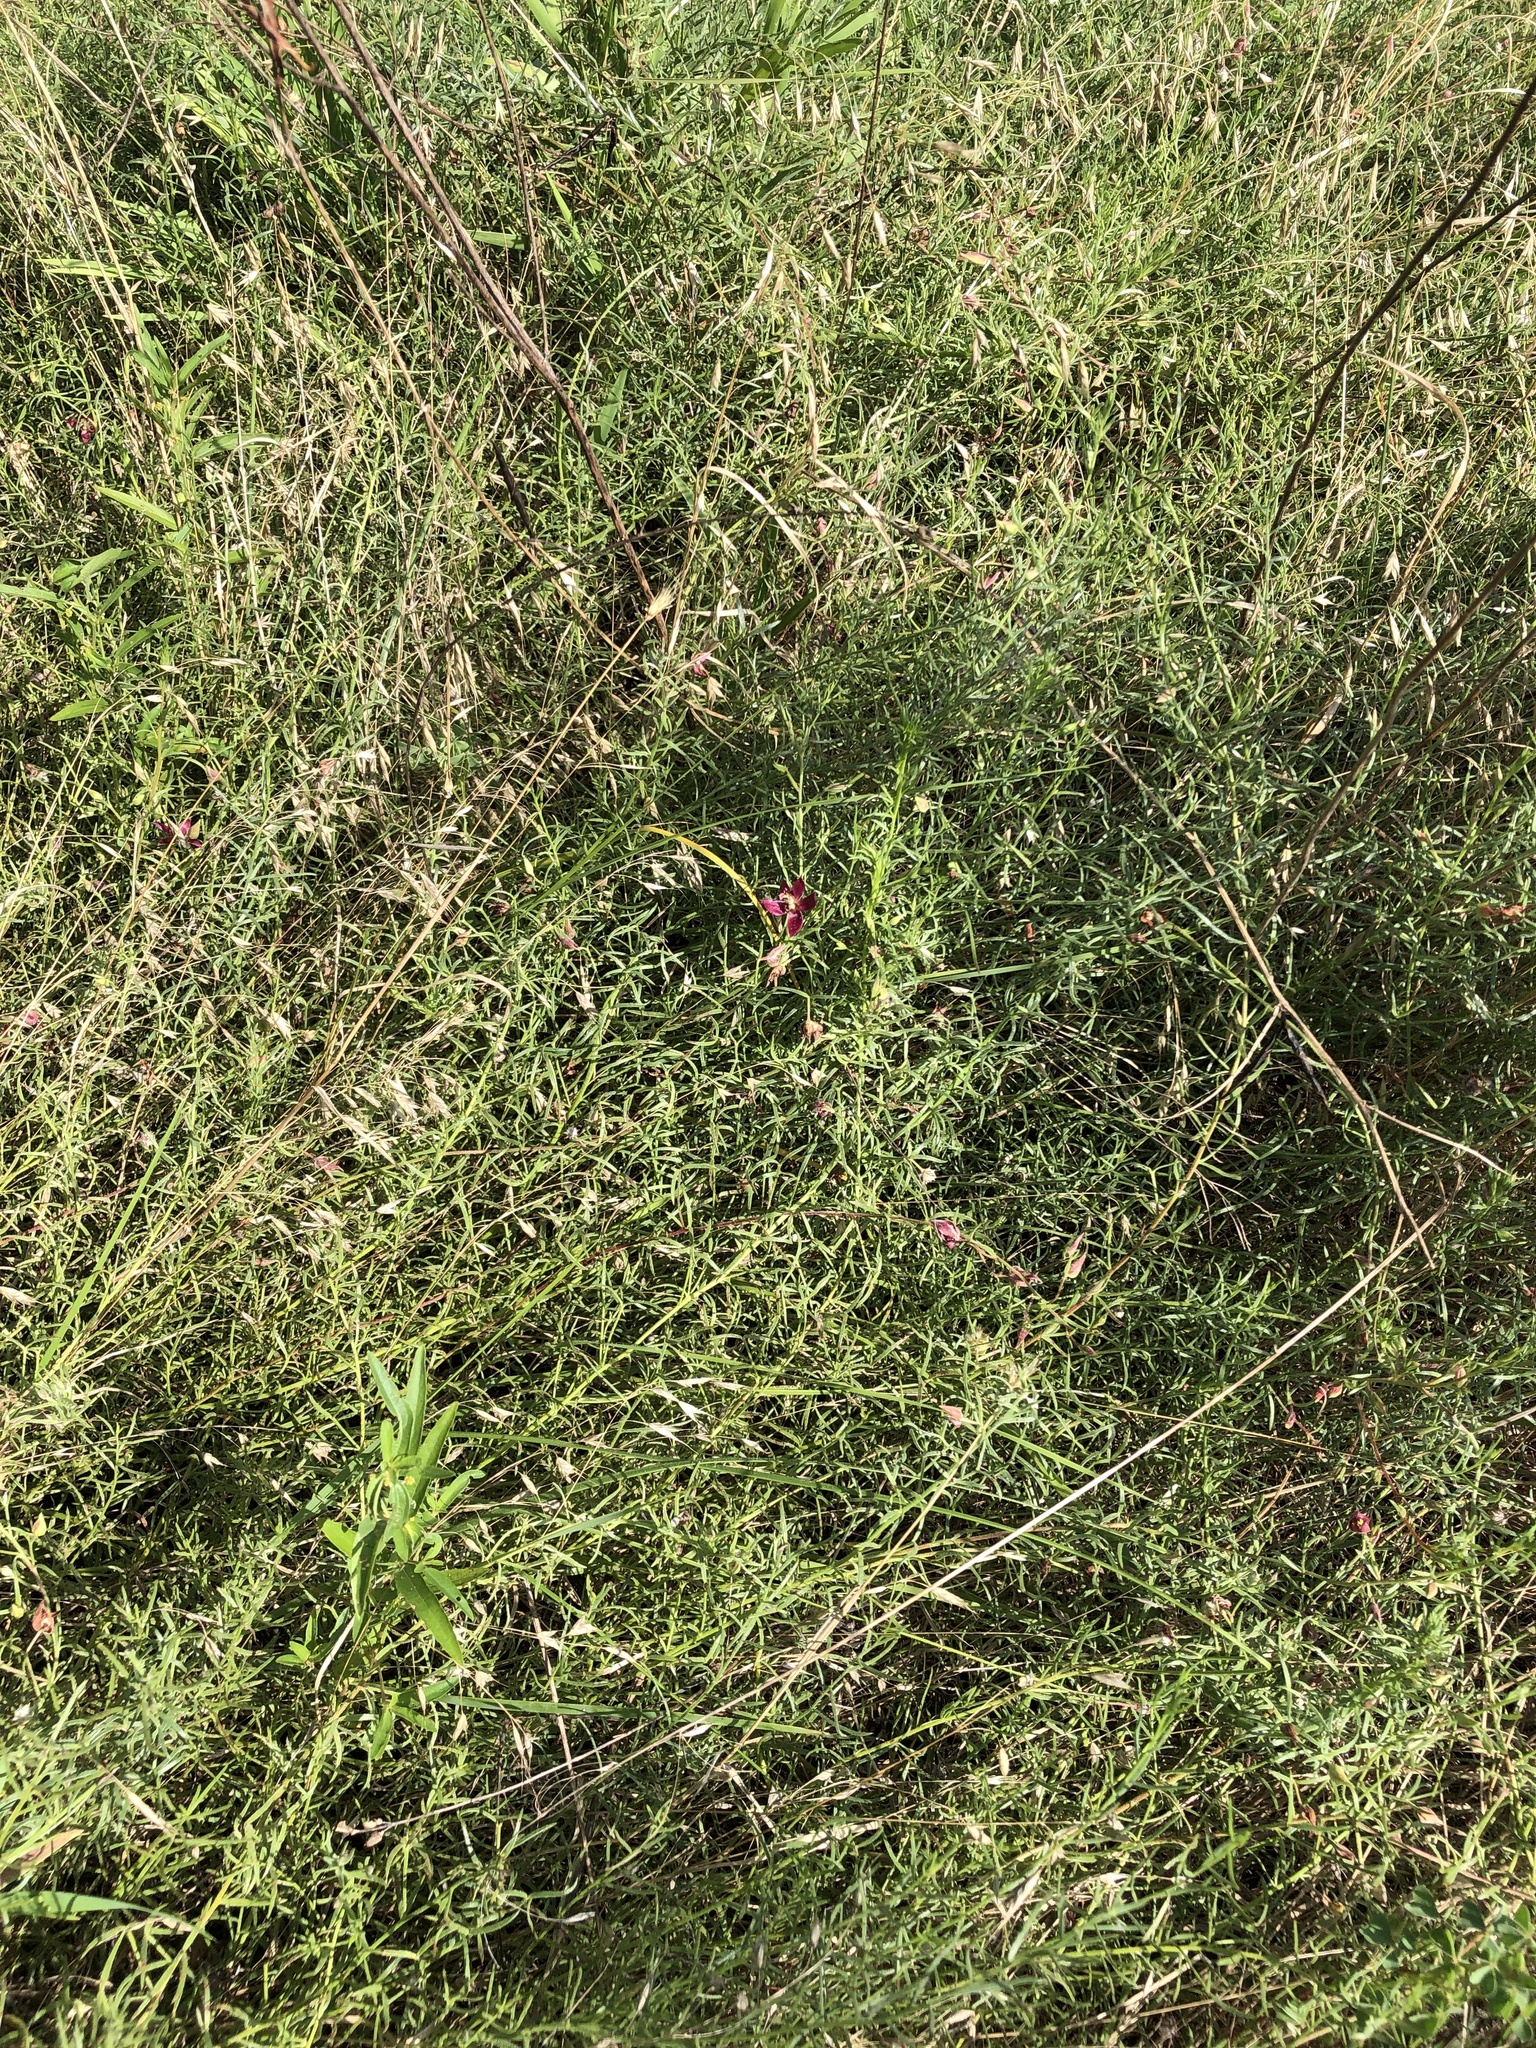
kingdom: Plantae
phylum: Tracheophyta
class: Magnoliopsida
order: Zygophyllales
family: Krameriaceae
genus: Krameria
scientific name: Krameria lanceolata
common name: Ratany
